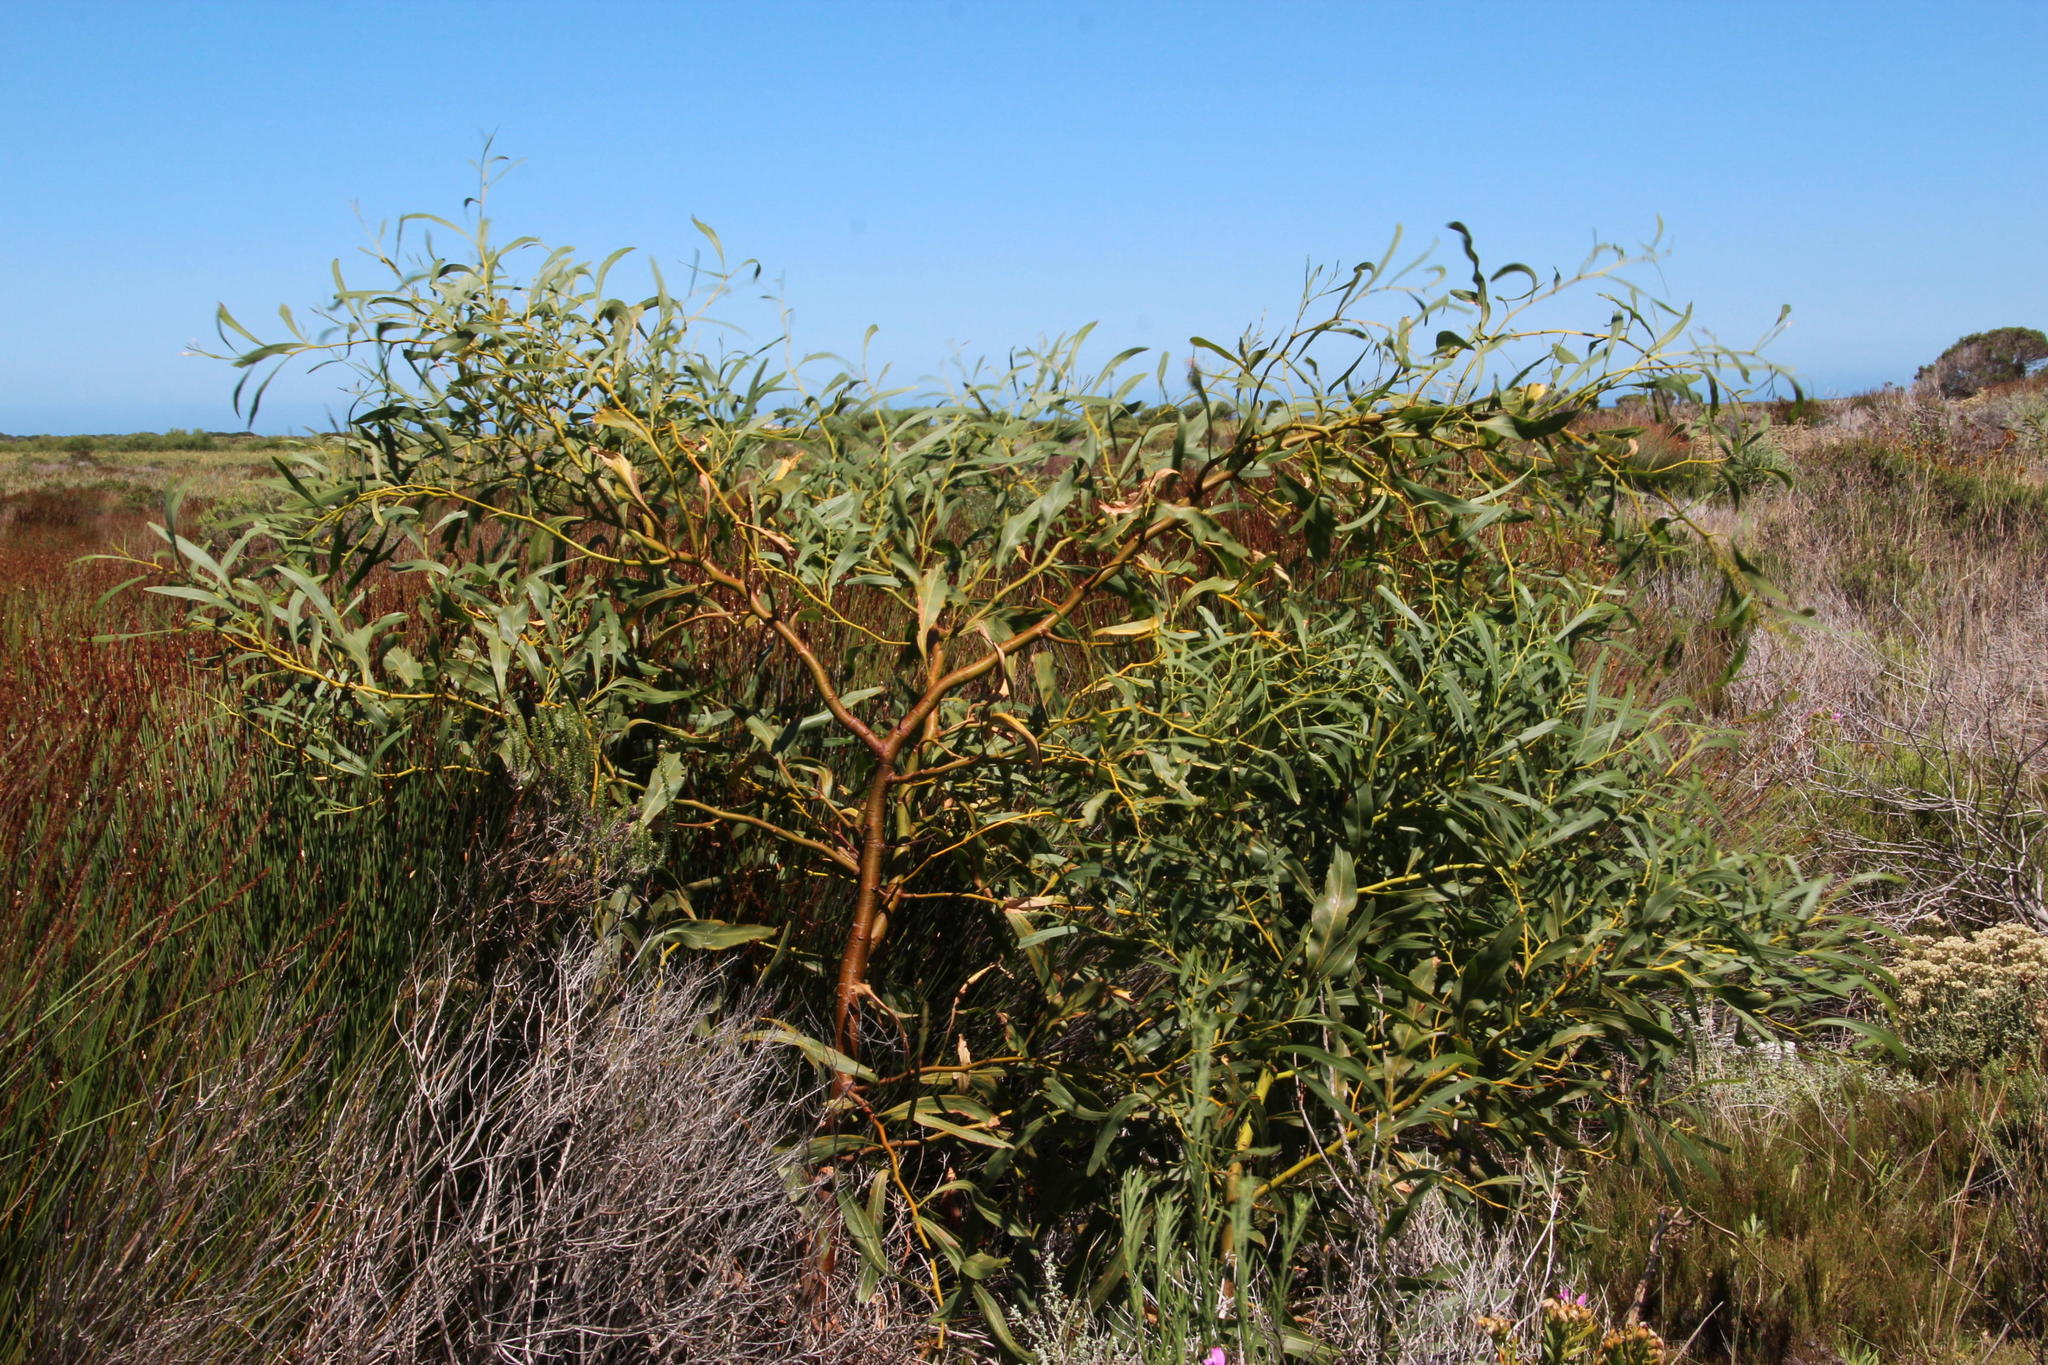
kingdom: Plantae
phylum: Tracheophyta
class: Magnoliopsida
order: Fabales
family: Fabaceae
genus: Acacia
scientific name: Acacia saligna
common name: Orange wattle
